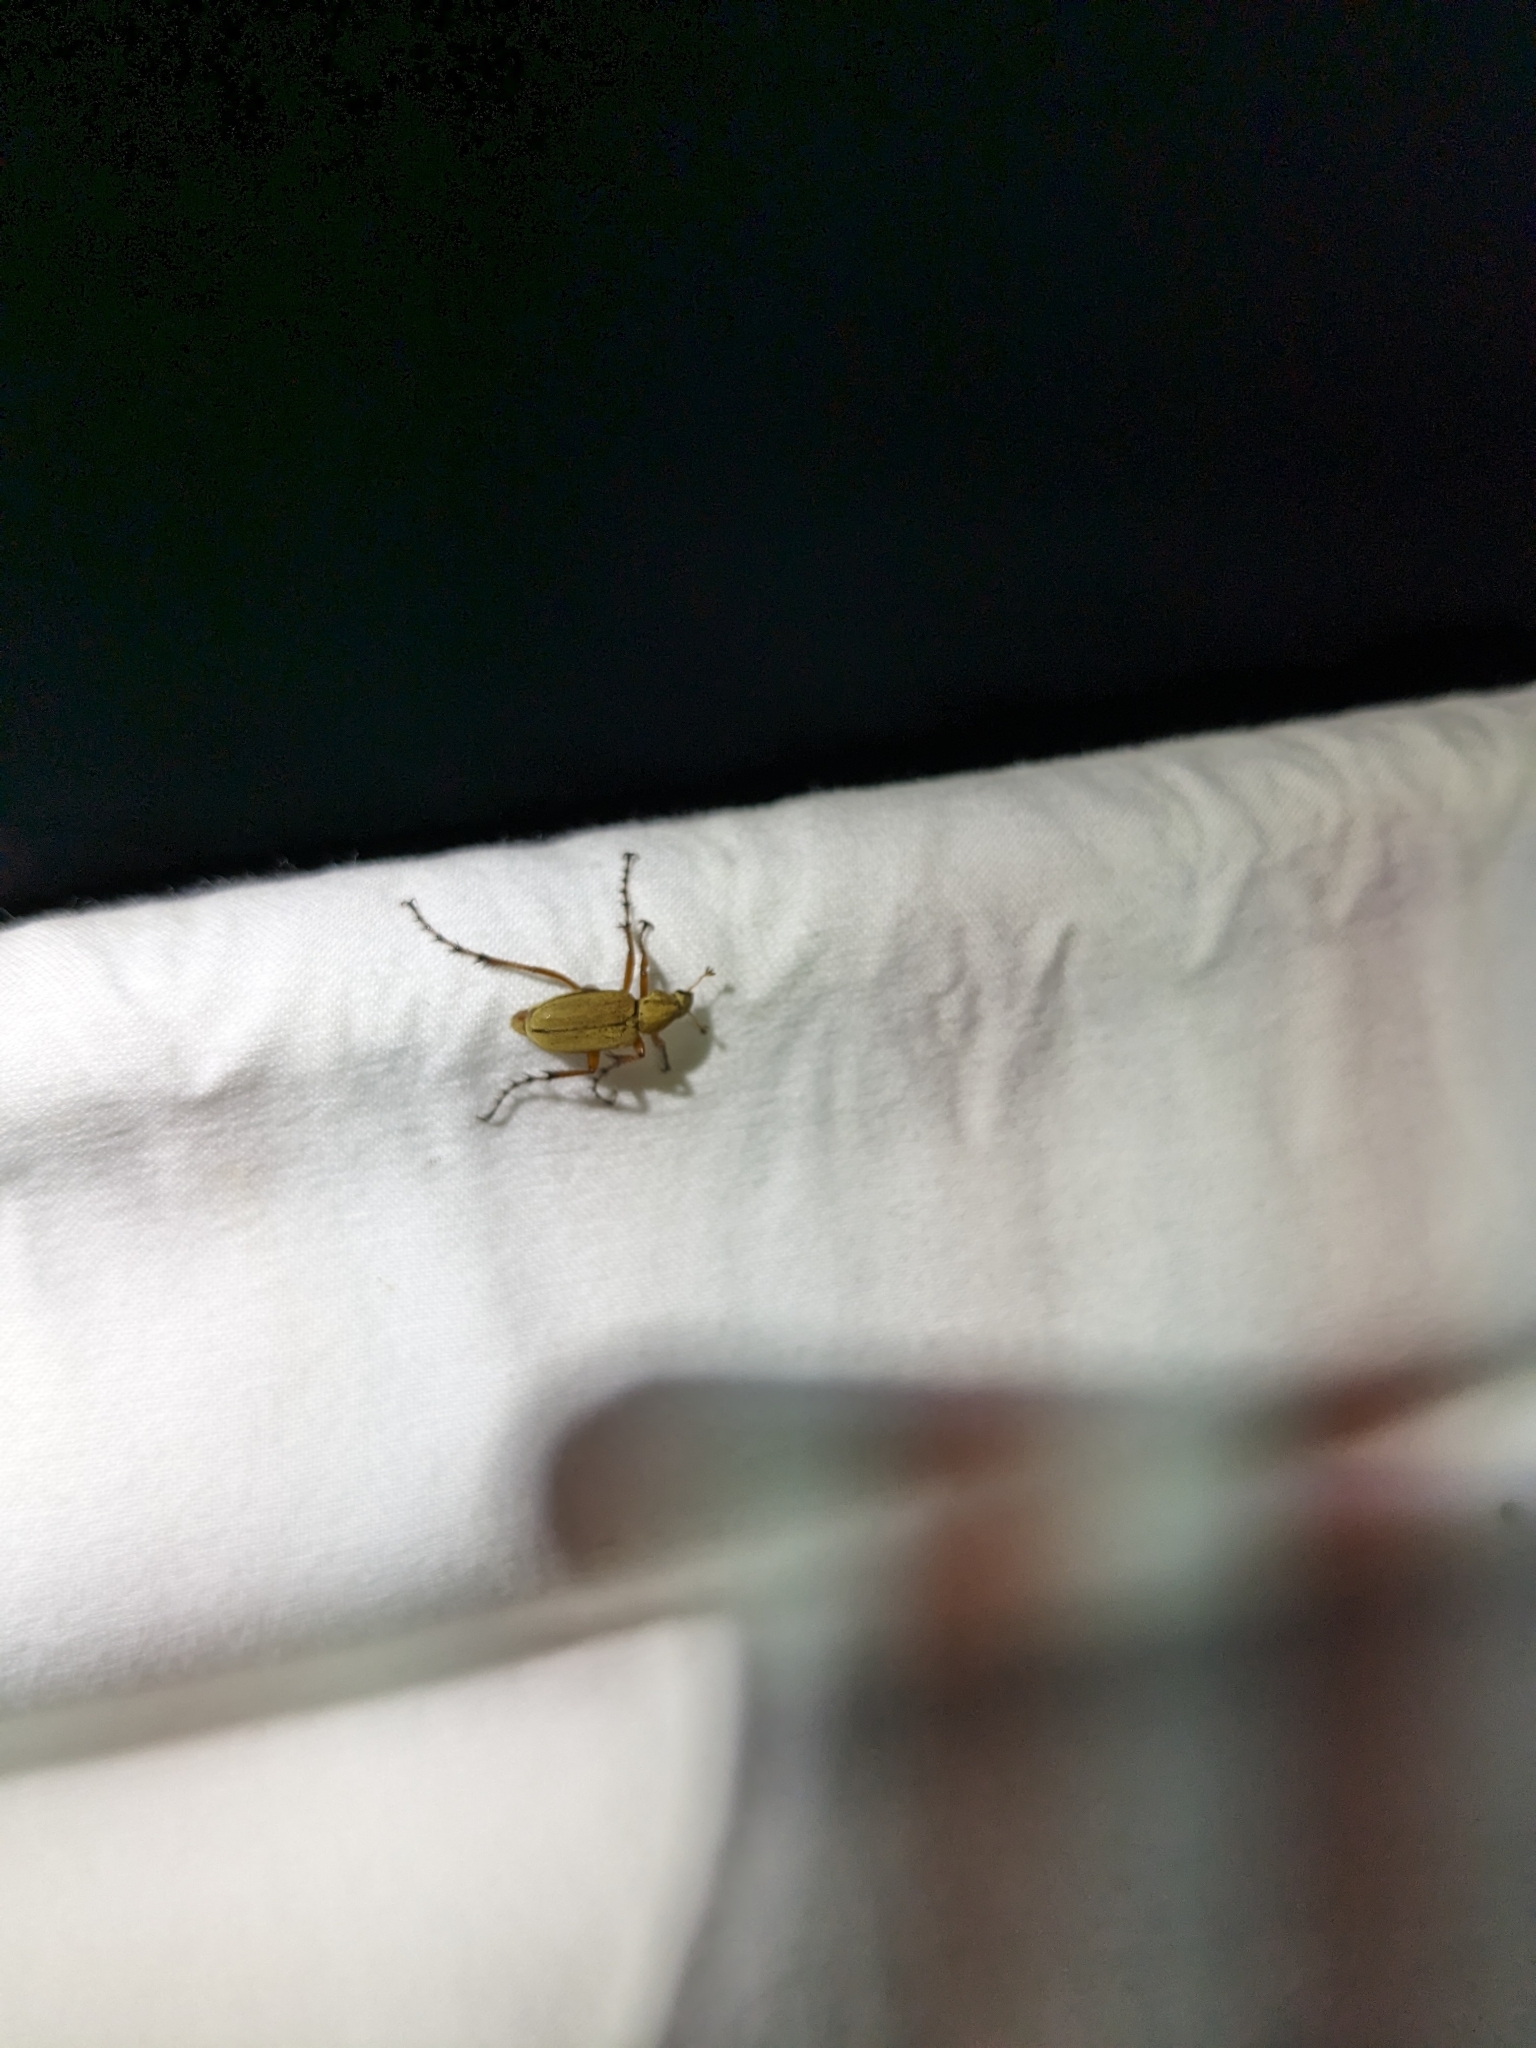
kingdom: Animalia
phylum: Arthropoda
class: Insecta
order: Coleoptera
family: Scarabaeidae
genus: Macrodactylus
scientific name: Macrodactylus subspinosus
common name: American rose chafer
